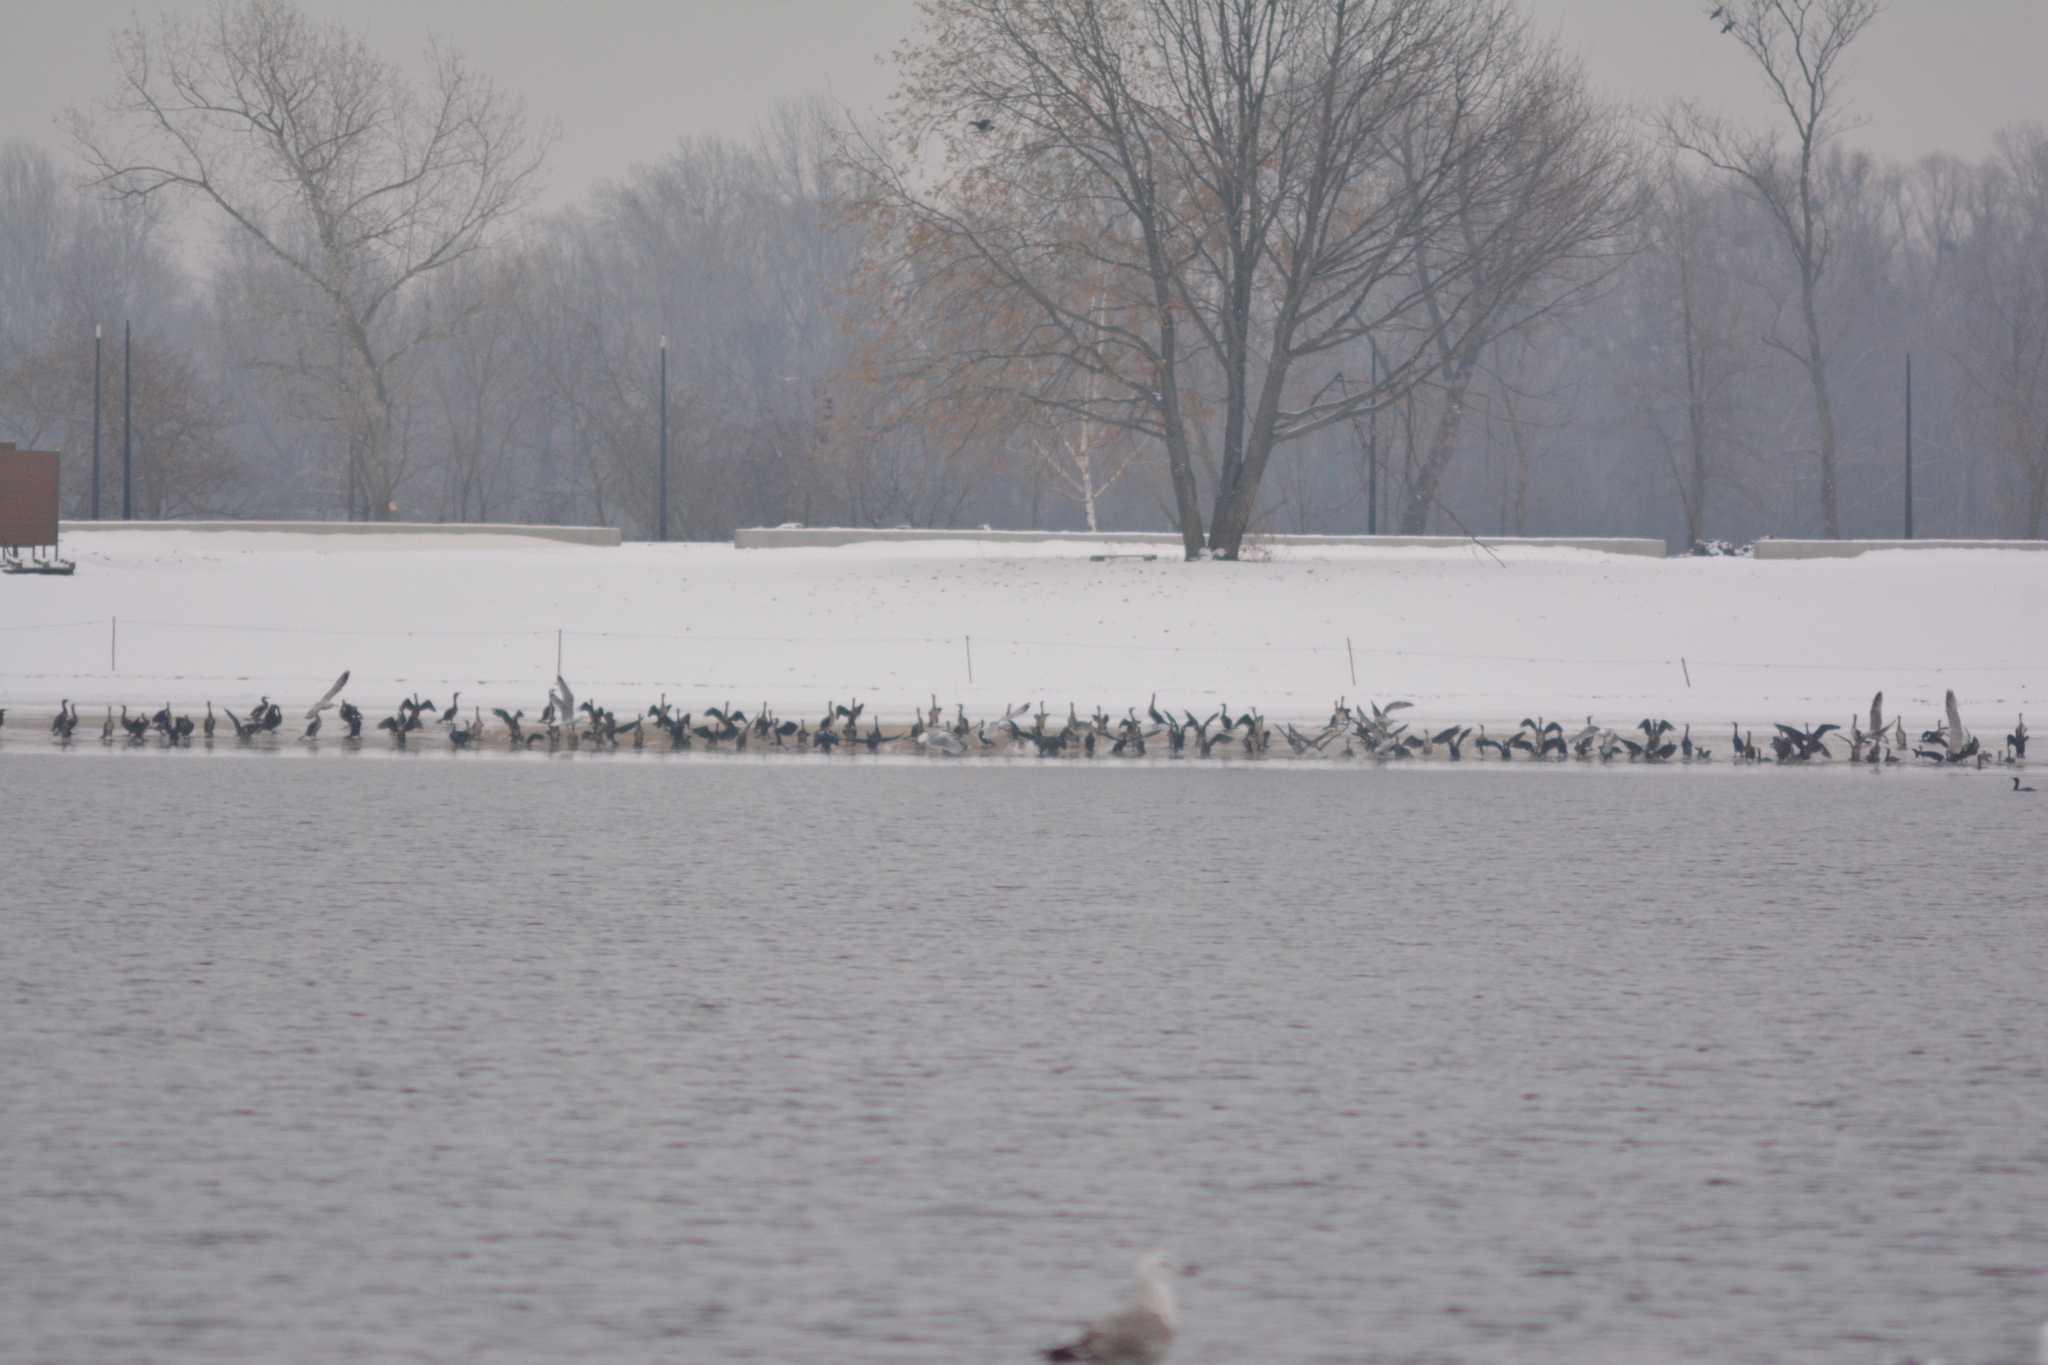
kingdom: Animalia
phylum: Chordata
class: Aves
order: Suliformes
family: Phalacrocoracidae
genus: Phalacrocorax
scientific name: Phalacrocorax carbo
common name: Great cormorant
